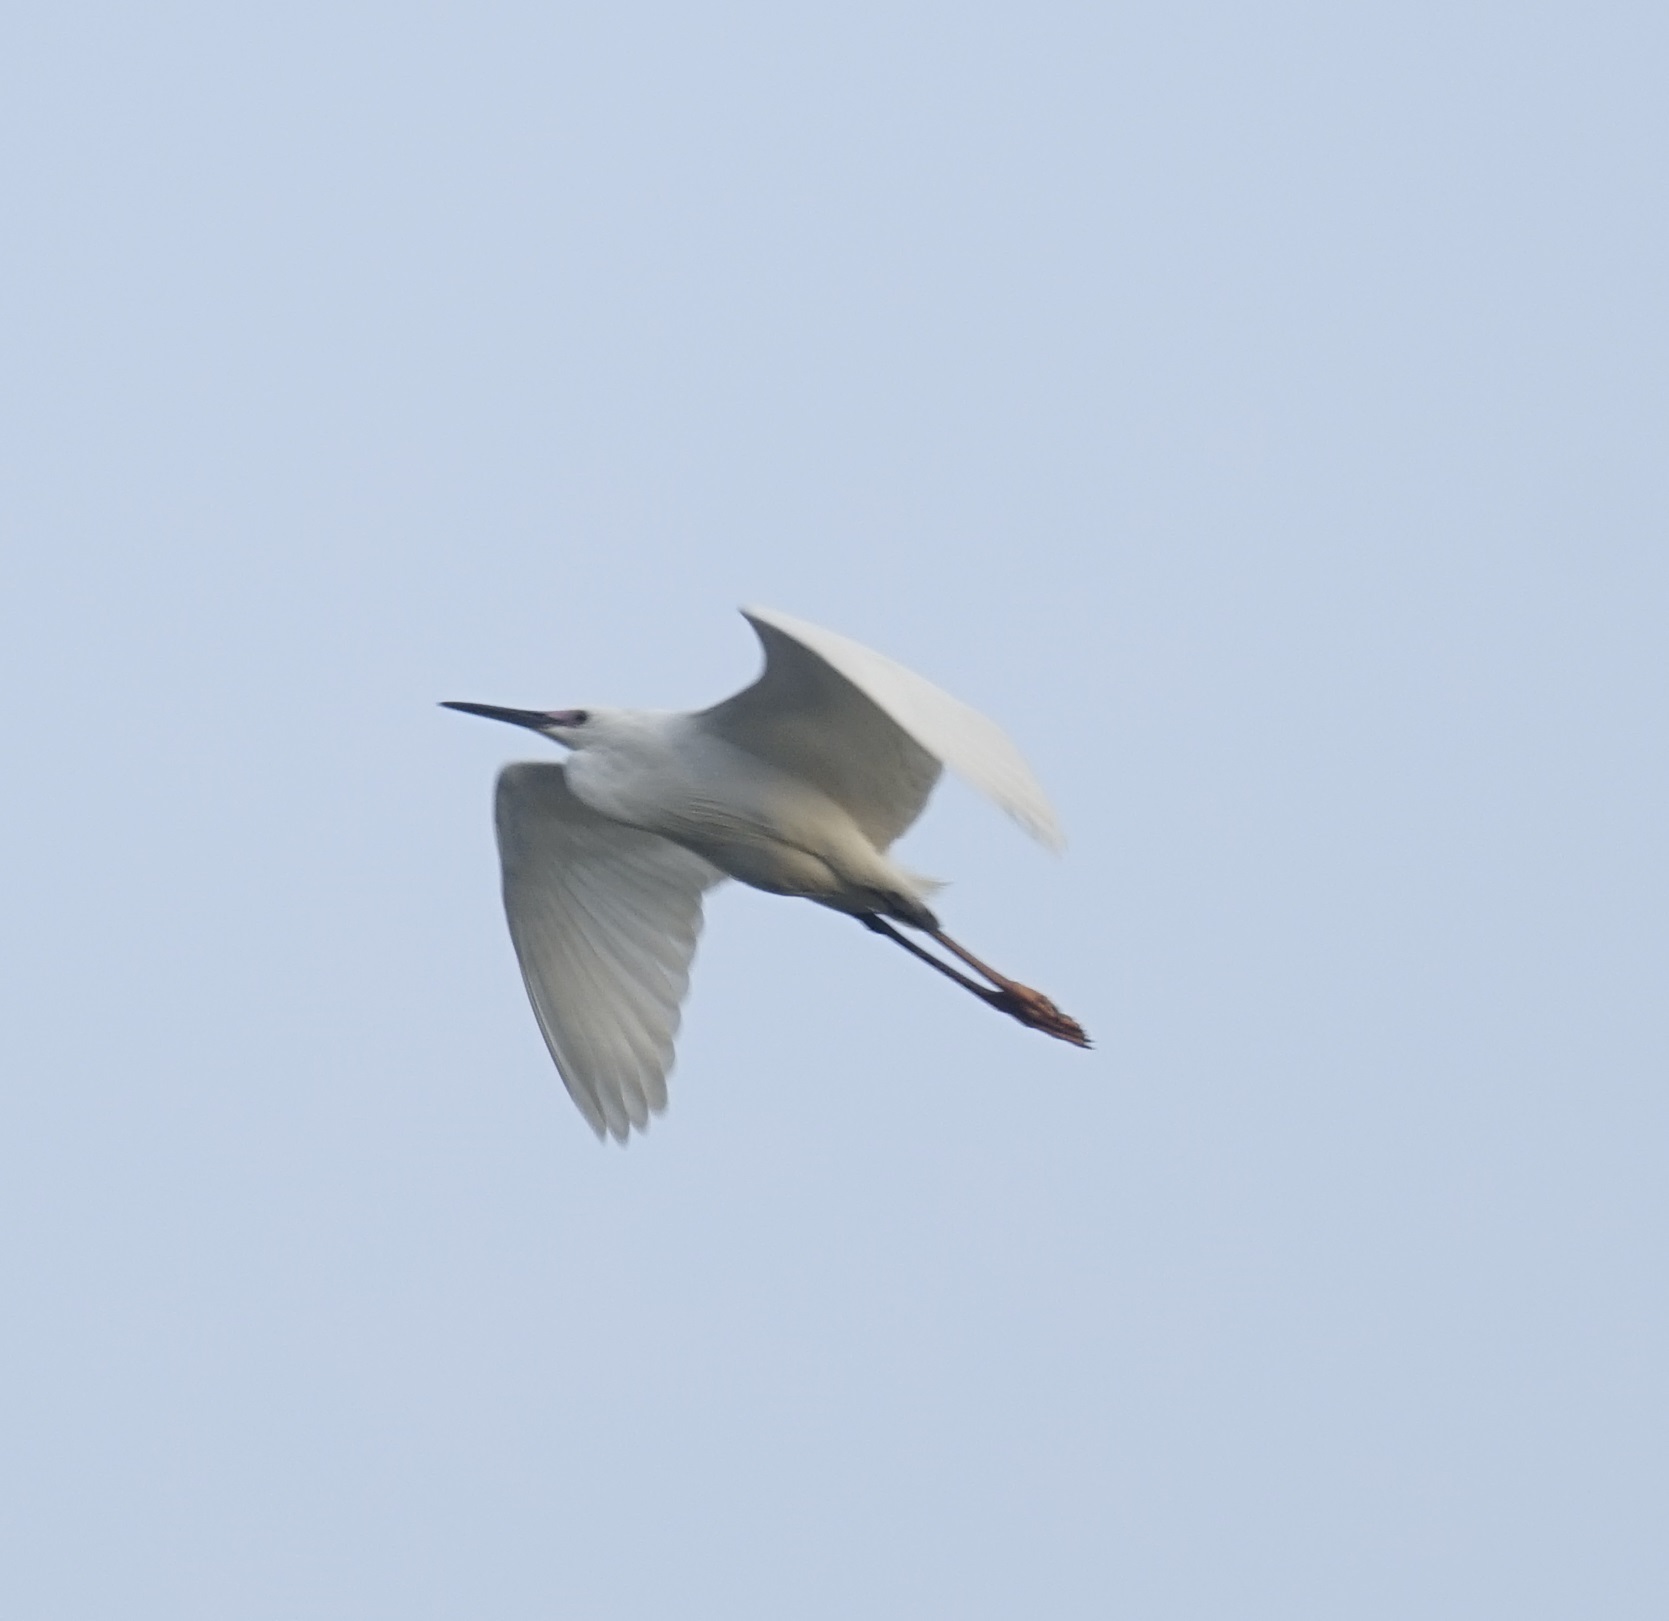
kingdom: Animalia
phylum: Chordata
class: Aves
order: Pelecaniformes
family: Ardeidae
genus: Egretta
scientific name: Egretta garzetta
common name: Little egret
